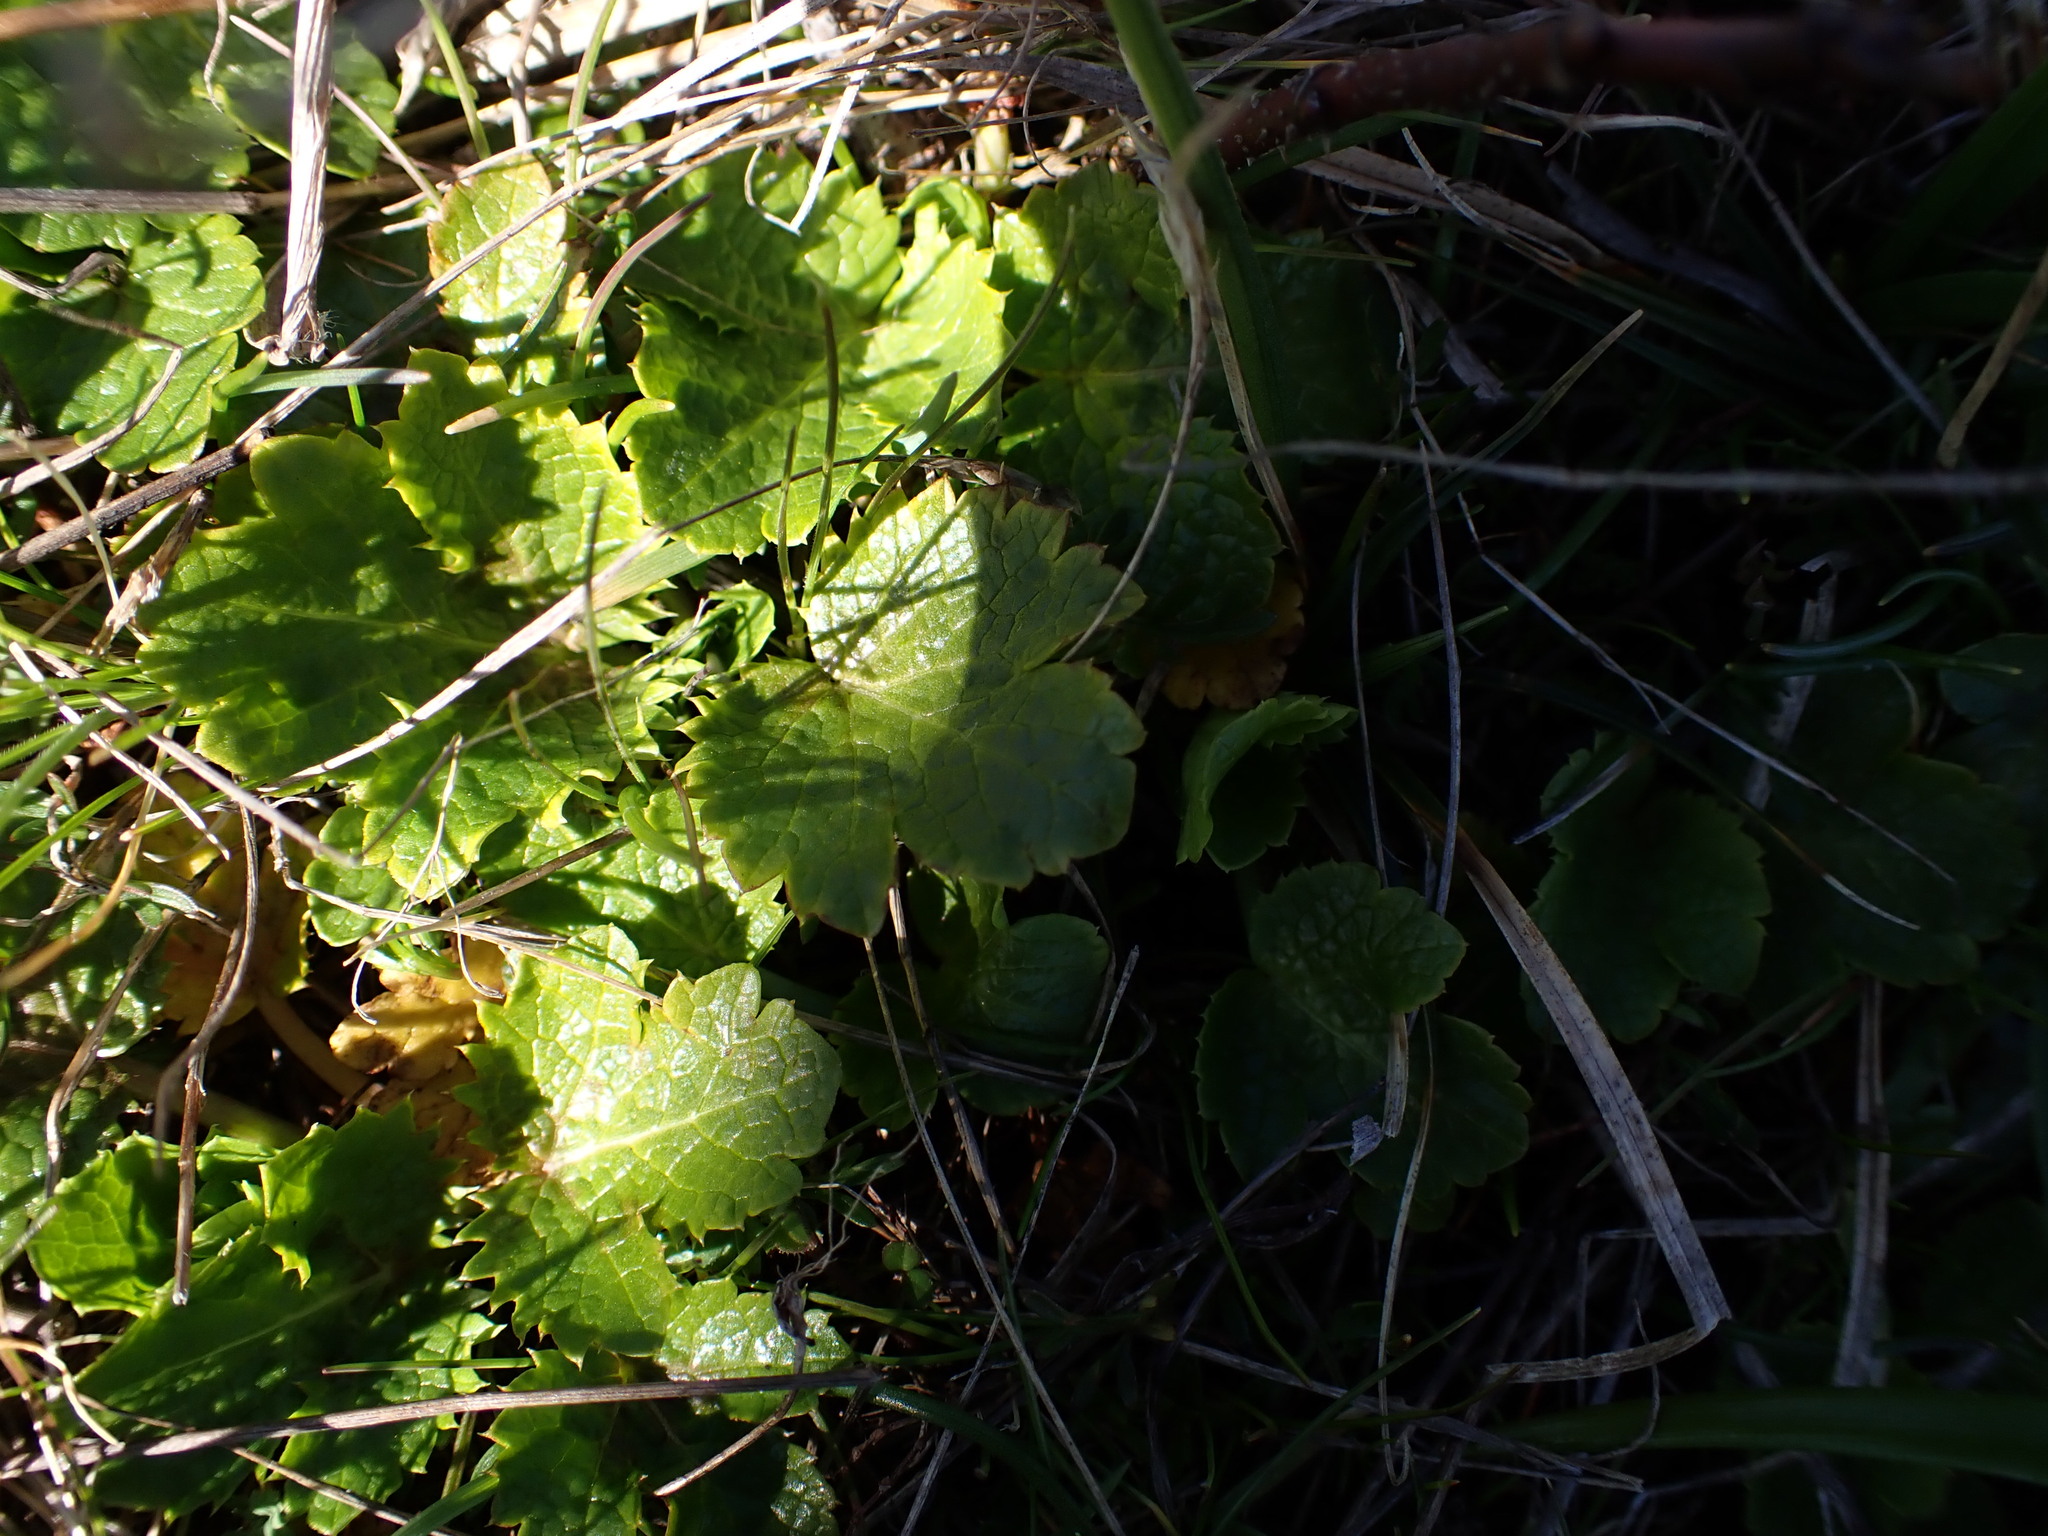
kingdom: Plantae
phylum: Tracheophyta
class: Magnoliopsida
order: Apiales
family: Apiaceae
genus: Sanicula
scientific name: Sanicula arctopoides
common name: Footsteps-of-spring
